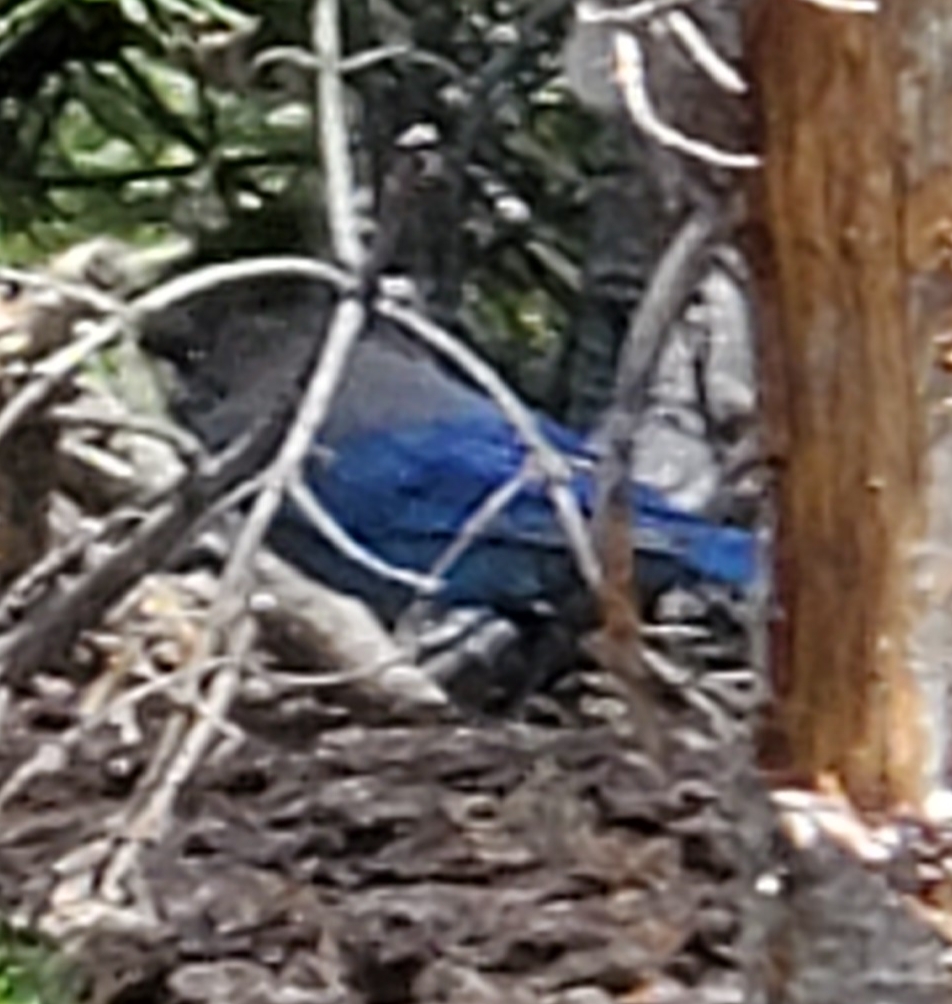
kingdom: Animalia
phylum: Chordata
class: Aves
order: Passeriformes
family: Corvidae
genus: Cyanocitta
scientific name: Cyanocitta stelleri
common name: Steller's jay
